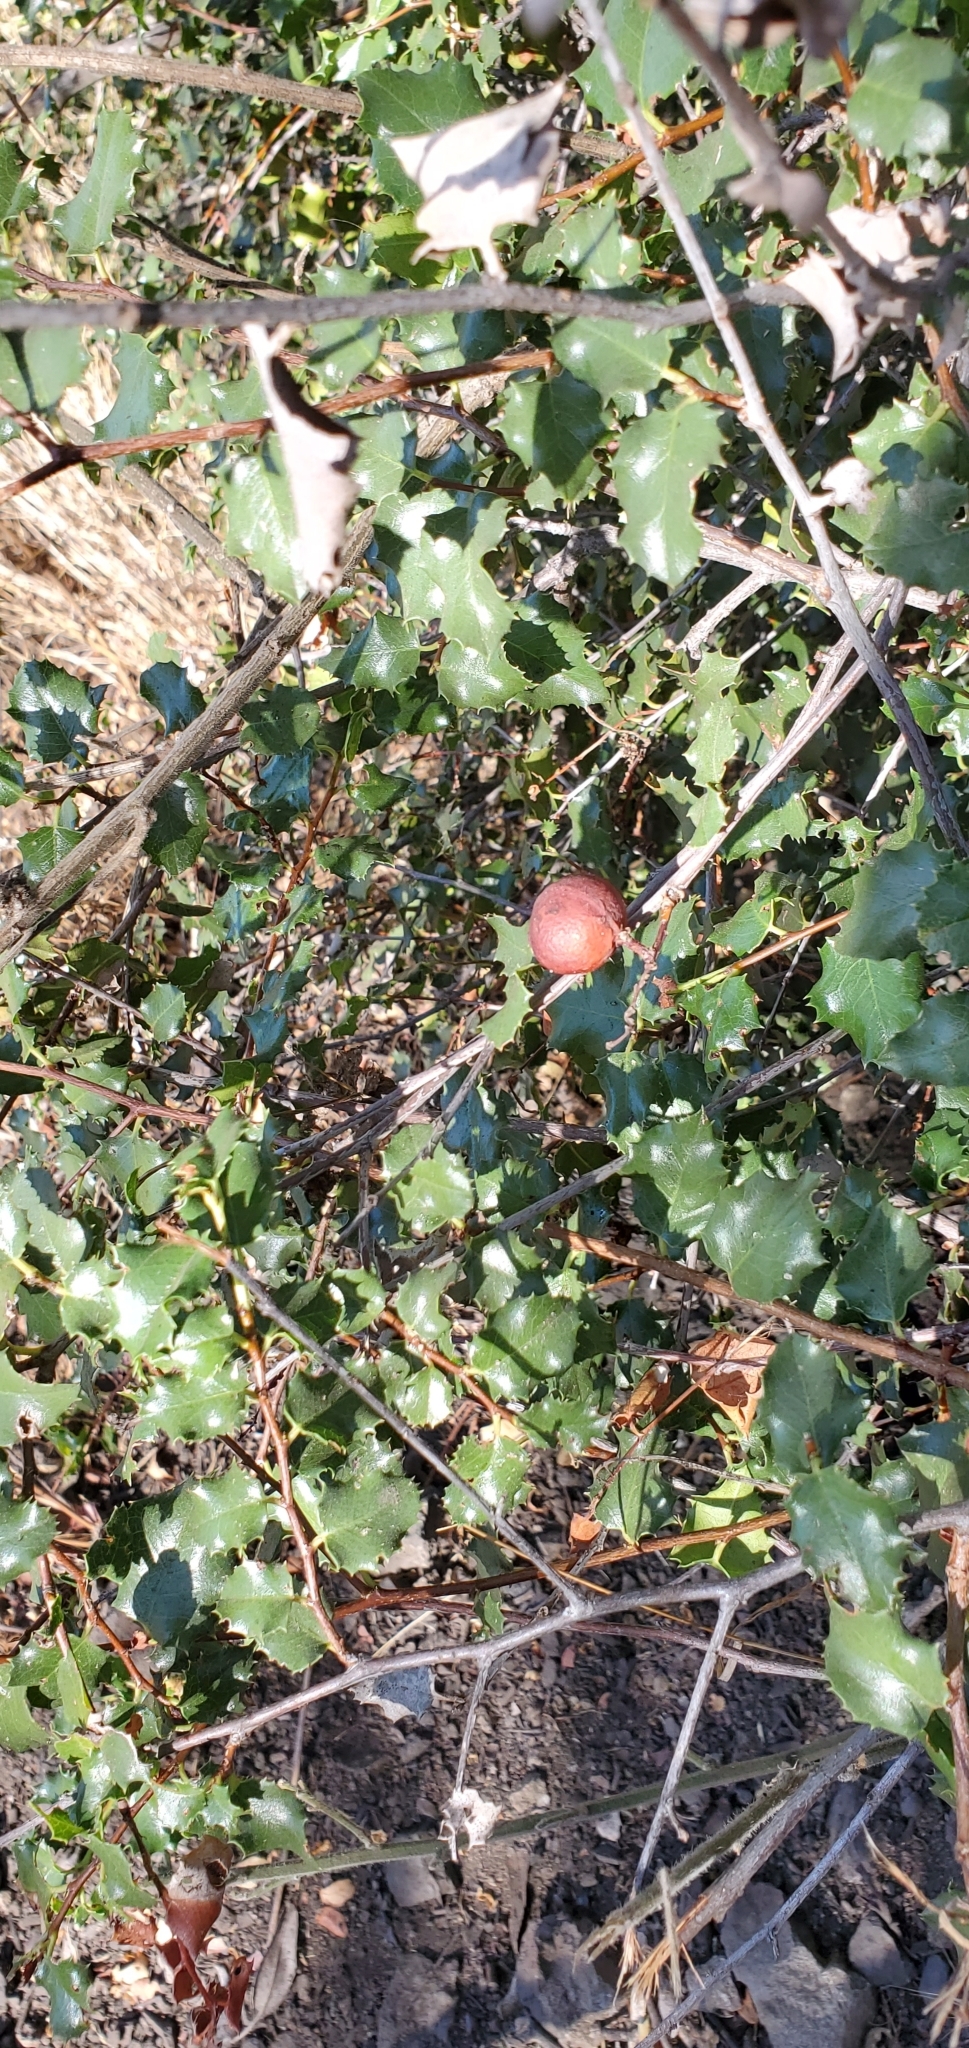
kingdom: Plantae
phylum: Tracheophyta
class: Magnoliopsida
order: Rosales
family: Rosaceae
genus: Prunus
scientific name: Prunus ilicifolia
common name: Hollyleaf cherry
